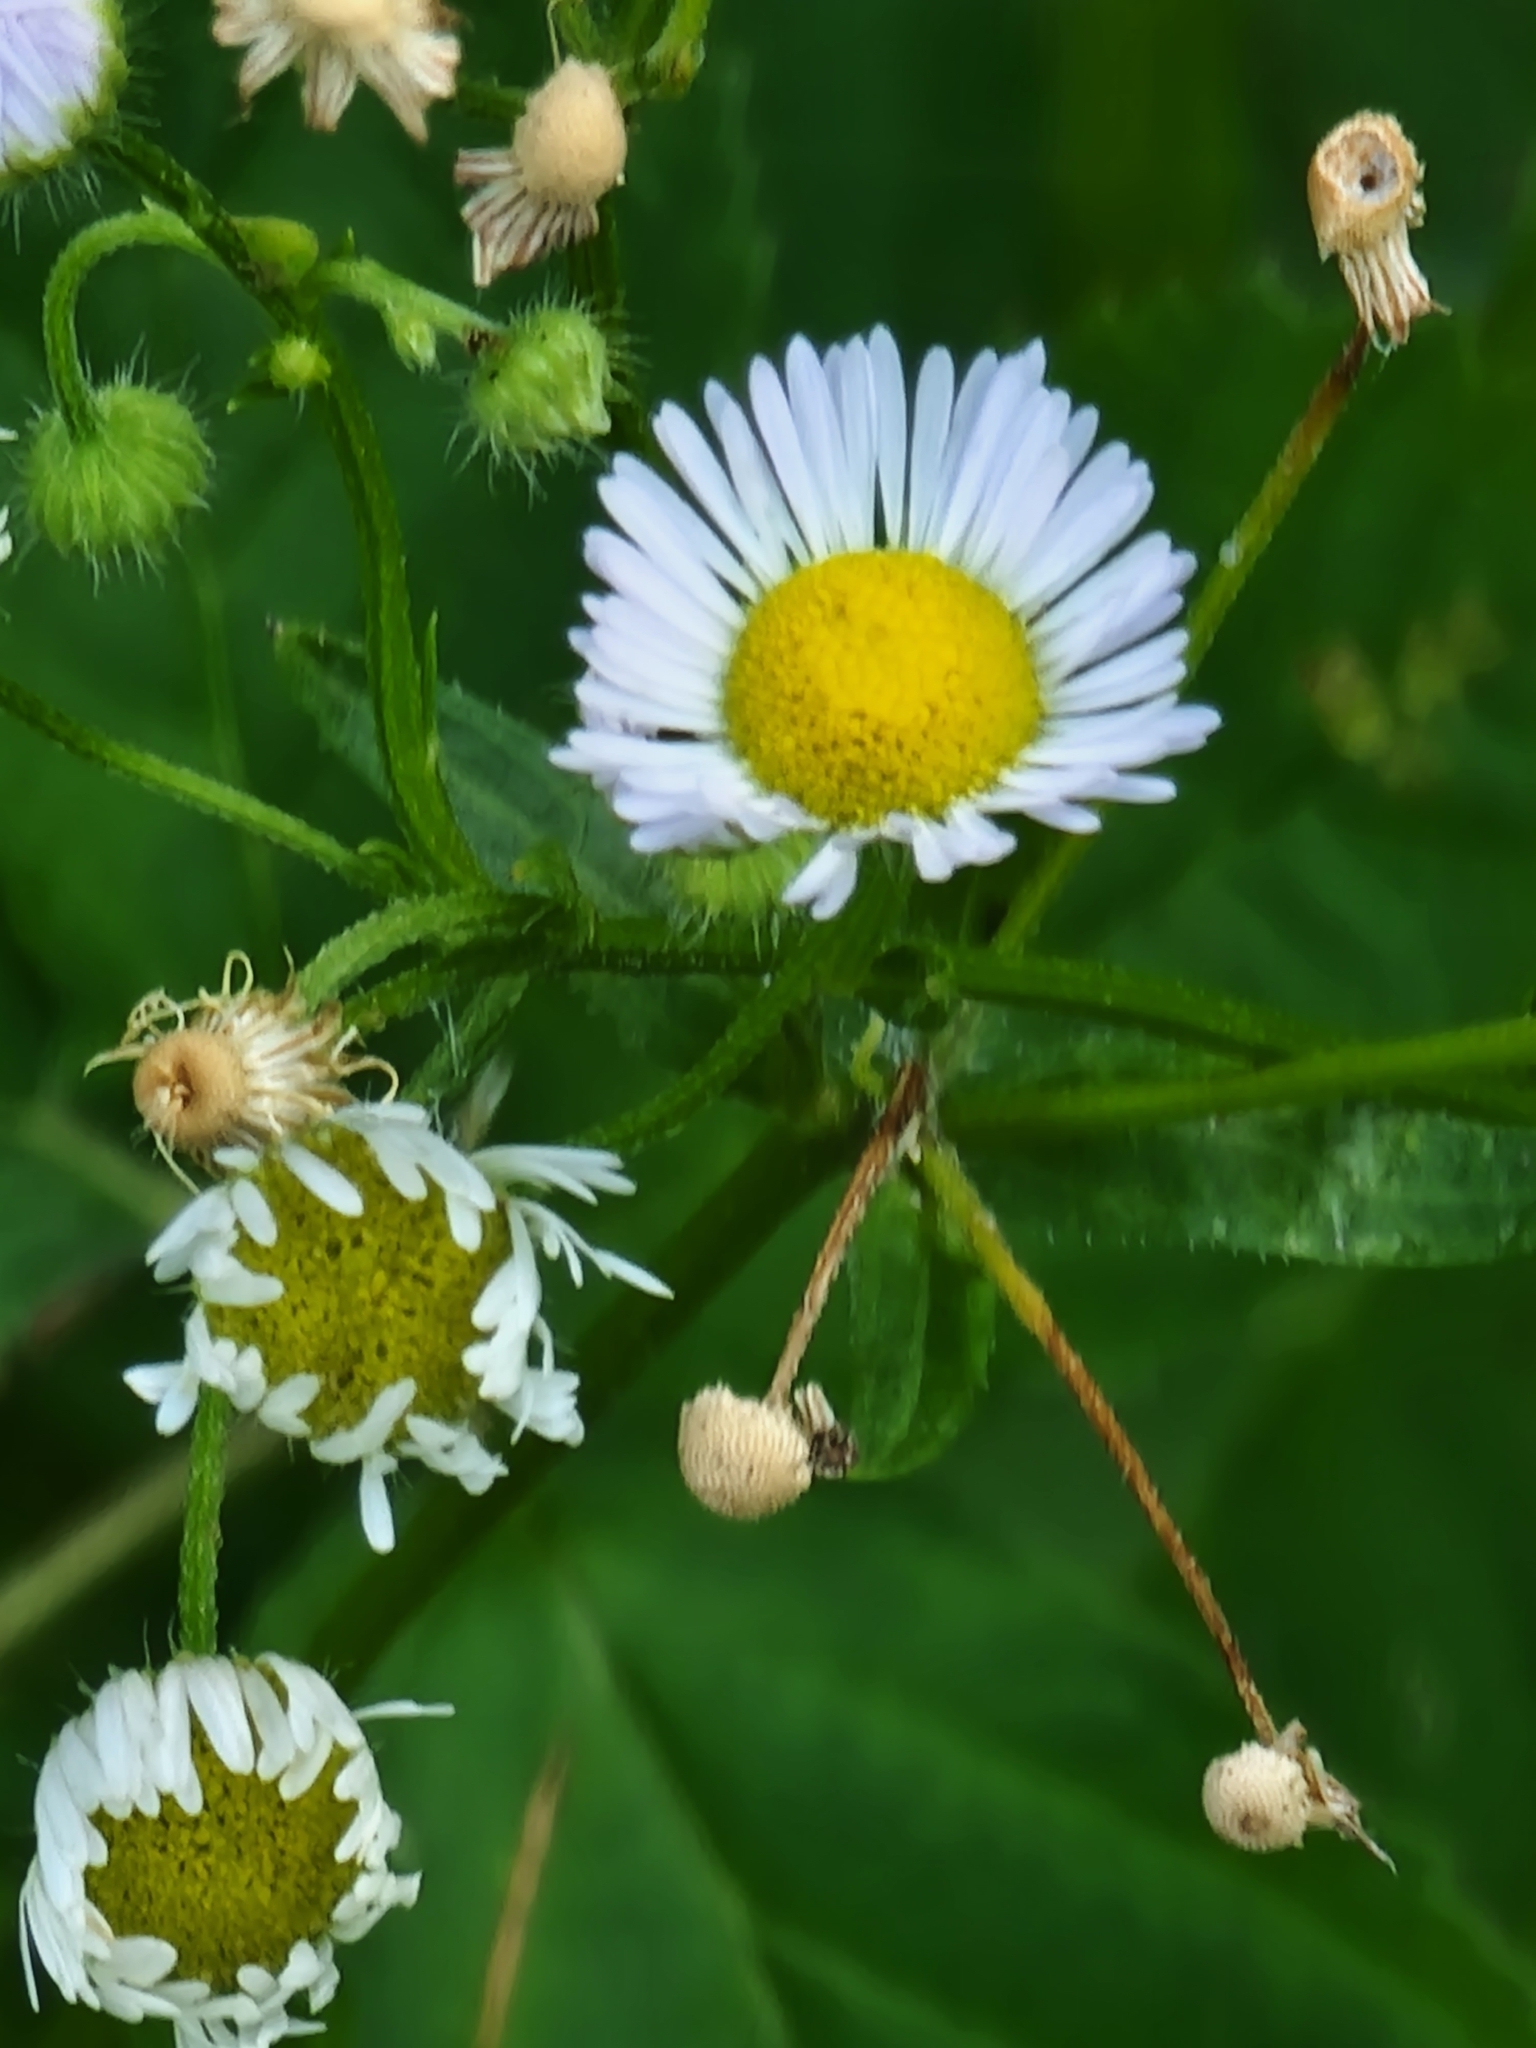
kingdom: Plantae
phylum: Tracheophyta
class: Magnoliopsida
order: Asterales
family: Asteraceae
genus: Erigeron
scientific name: Erigeron strigosus
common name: Common eastern fleabane
